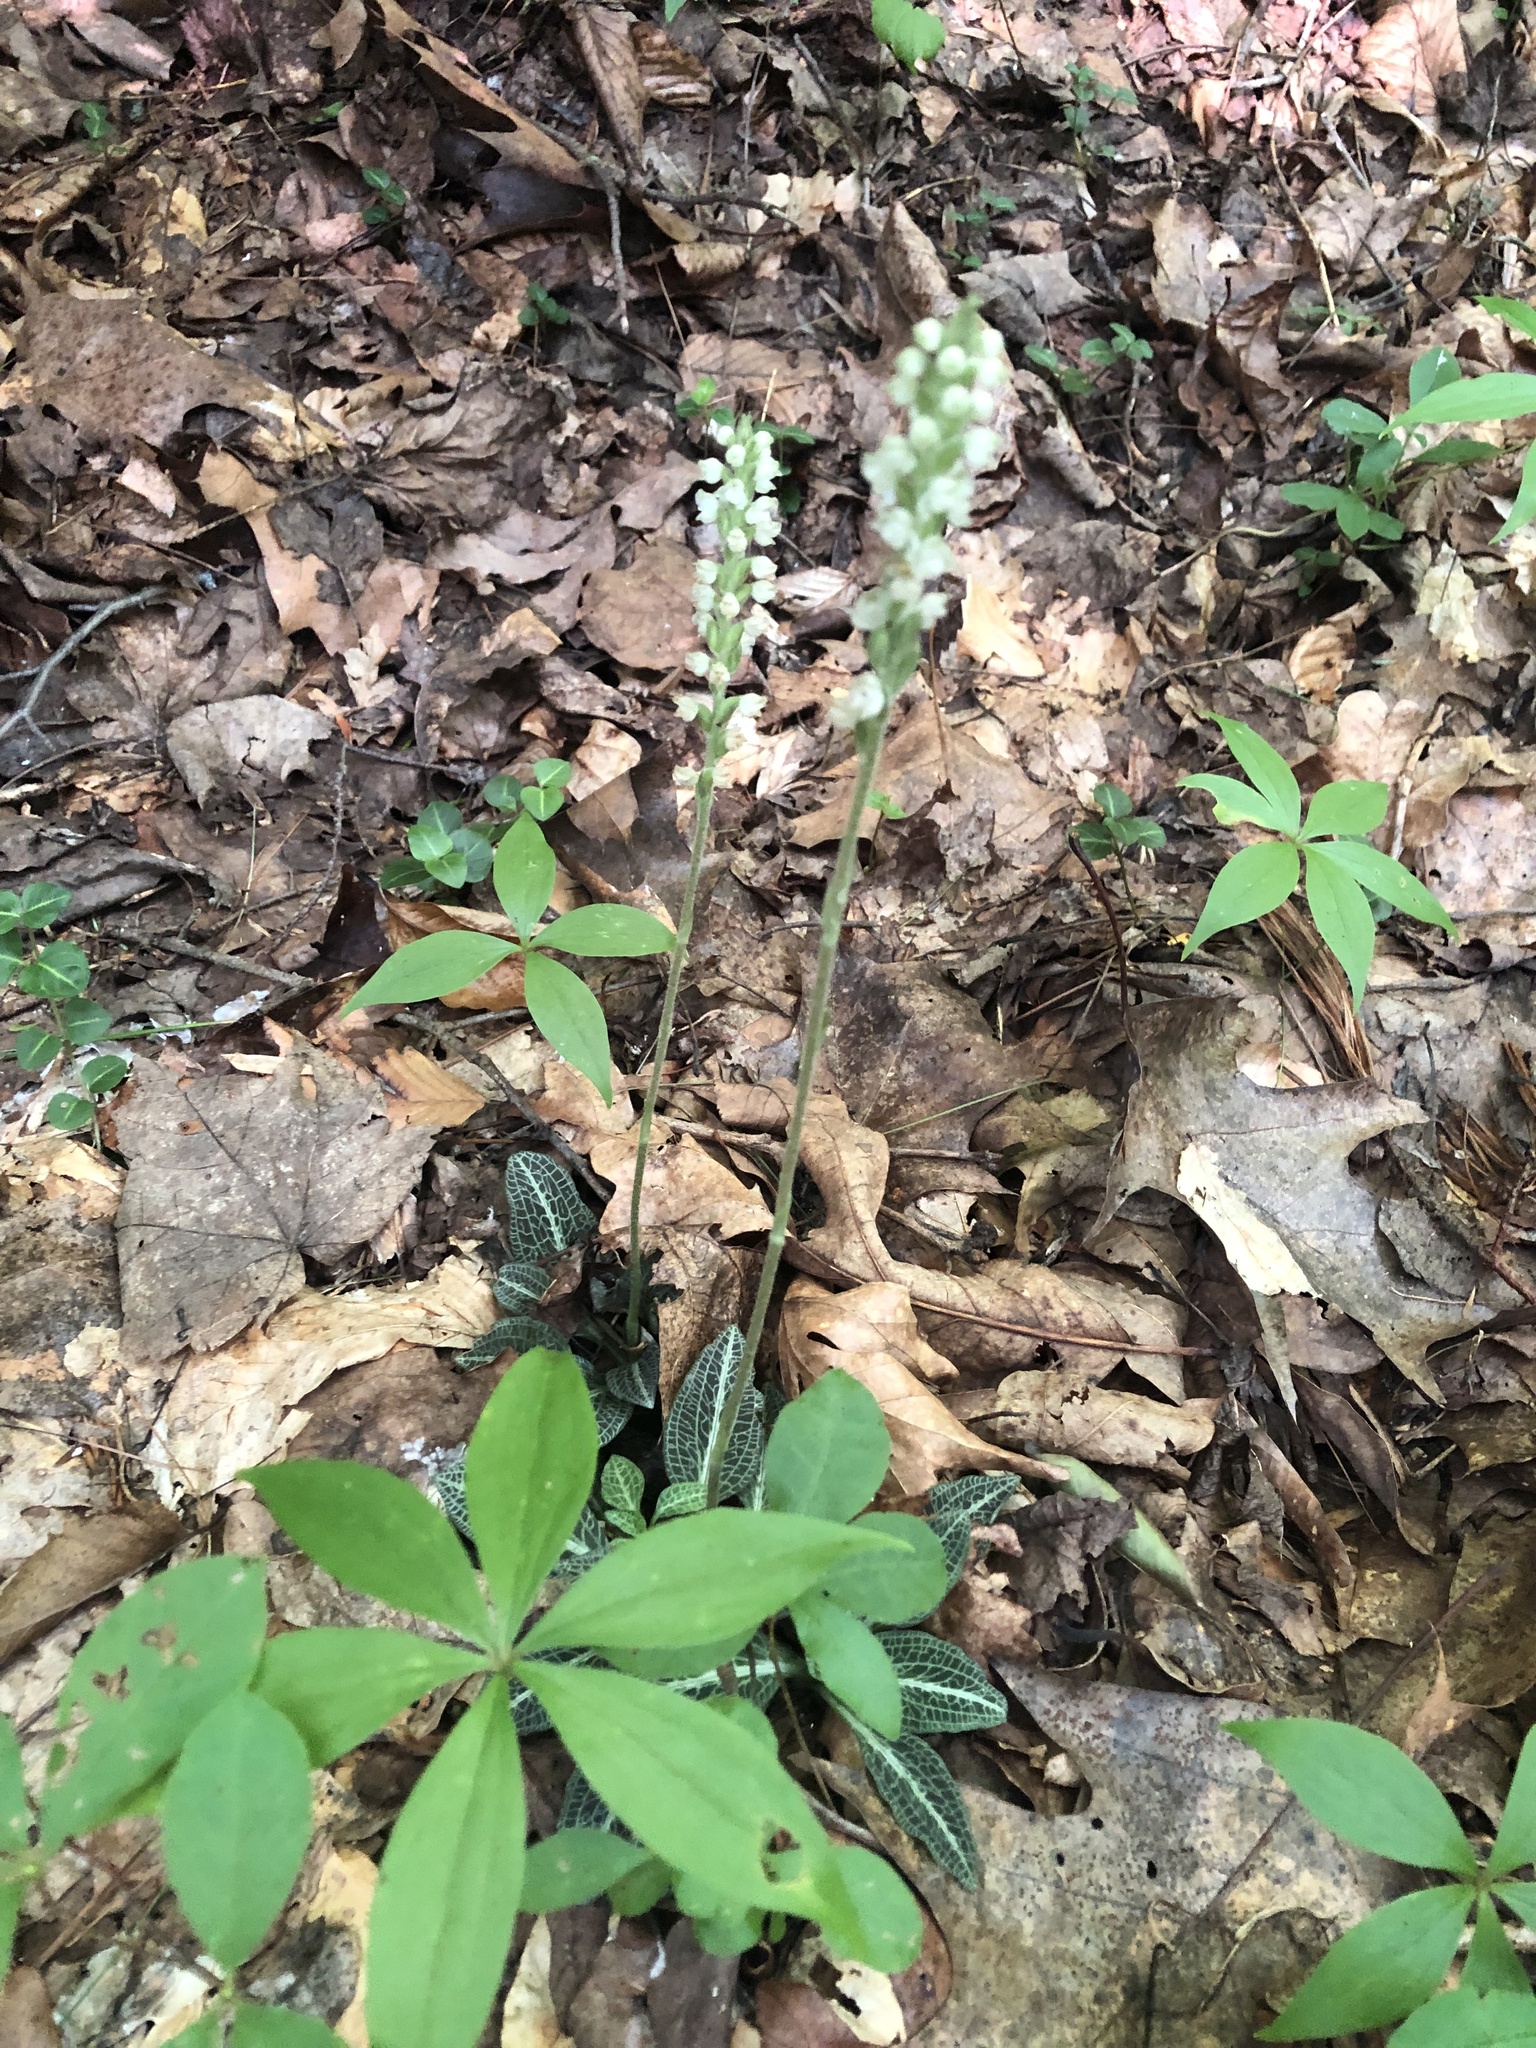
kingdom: Plantae
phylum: Tracheophyta
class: Liliopsida
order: Asparagales
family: Orchidaceae
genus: Goodyera
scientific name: Goodyera pubescens
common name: Downy rattlesnake-plantain
